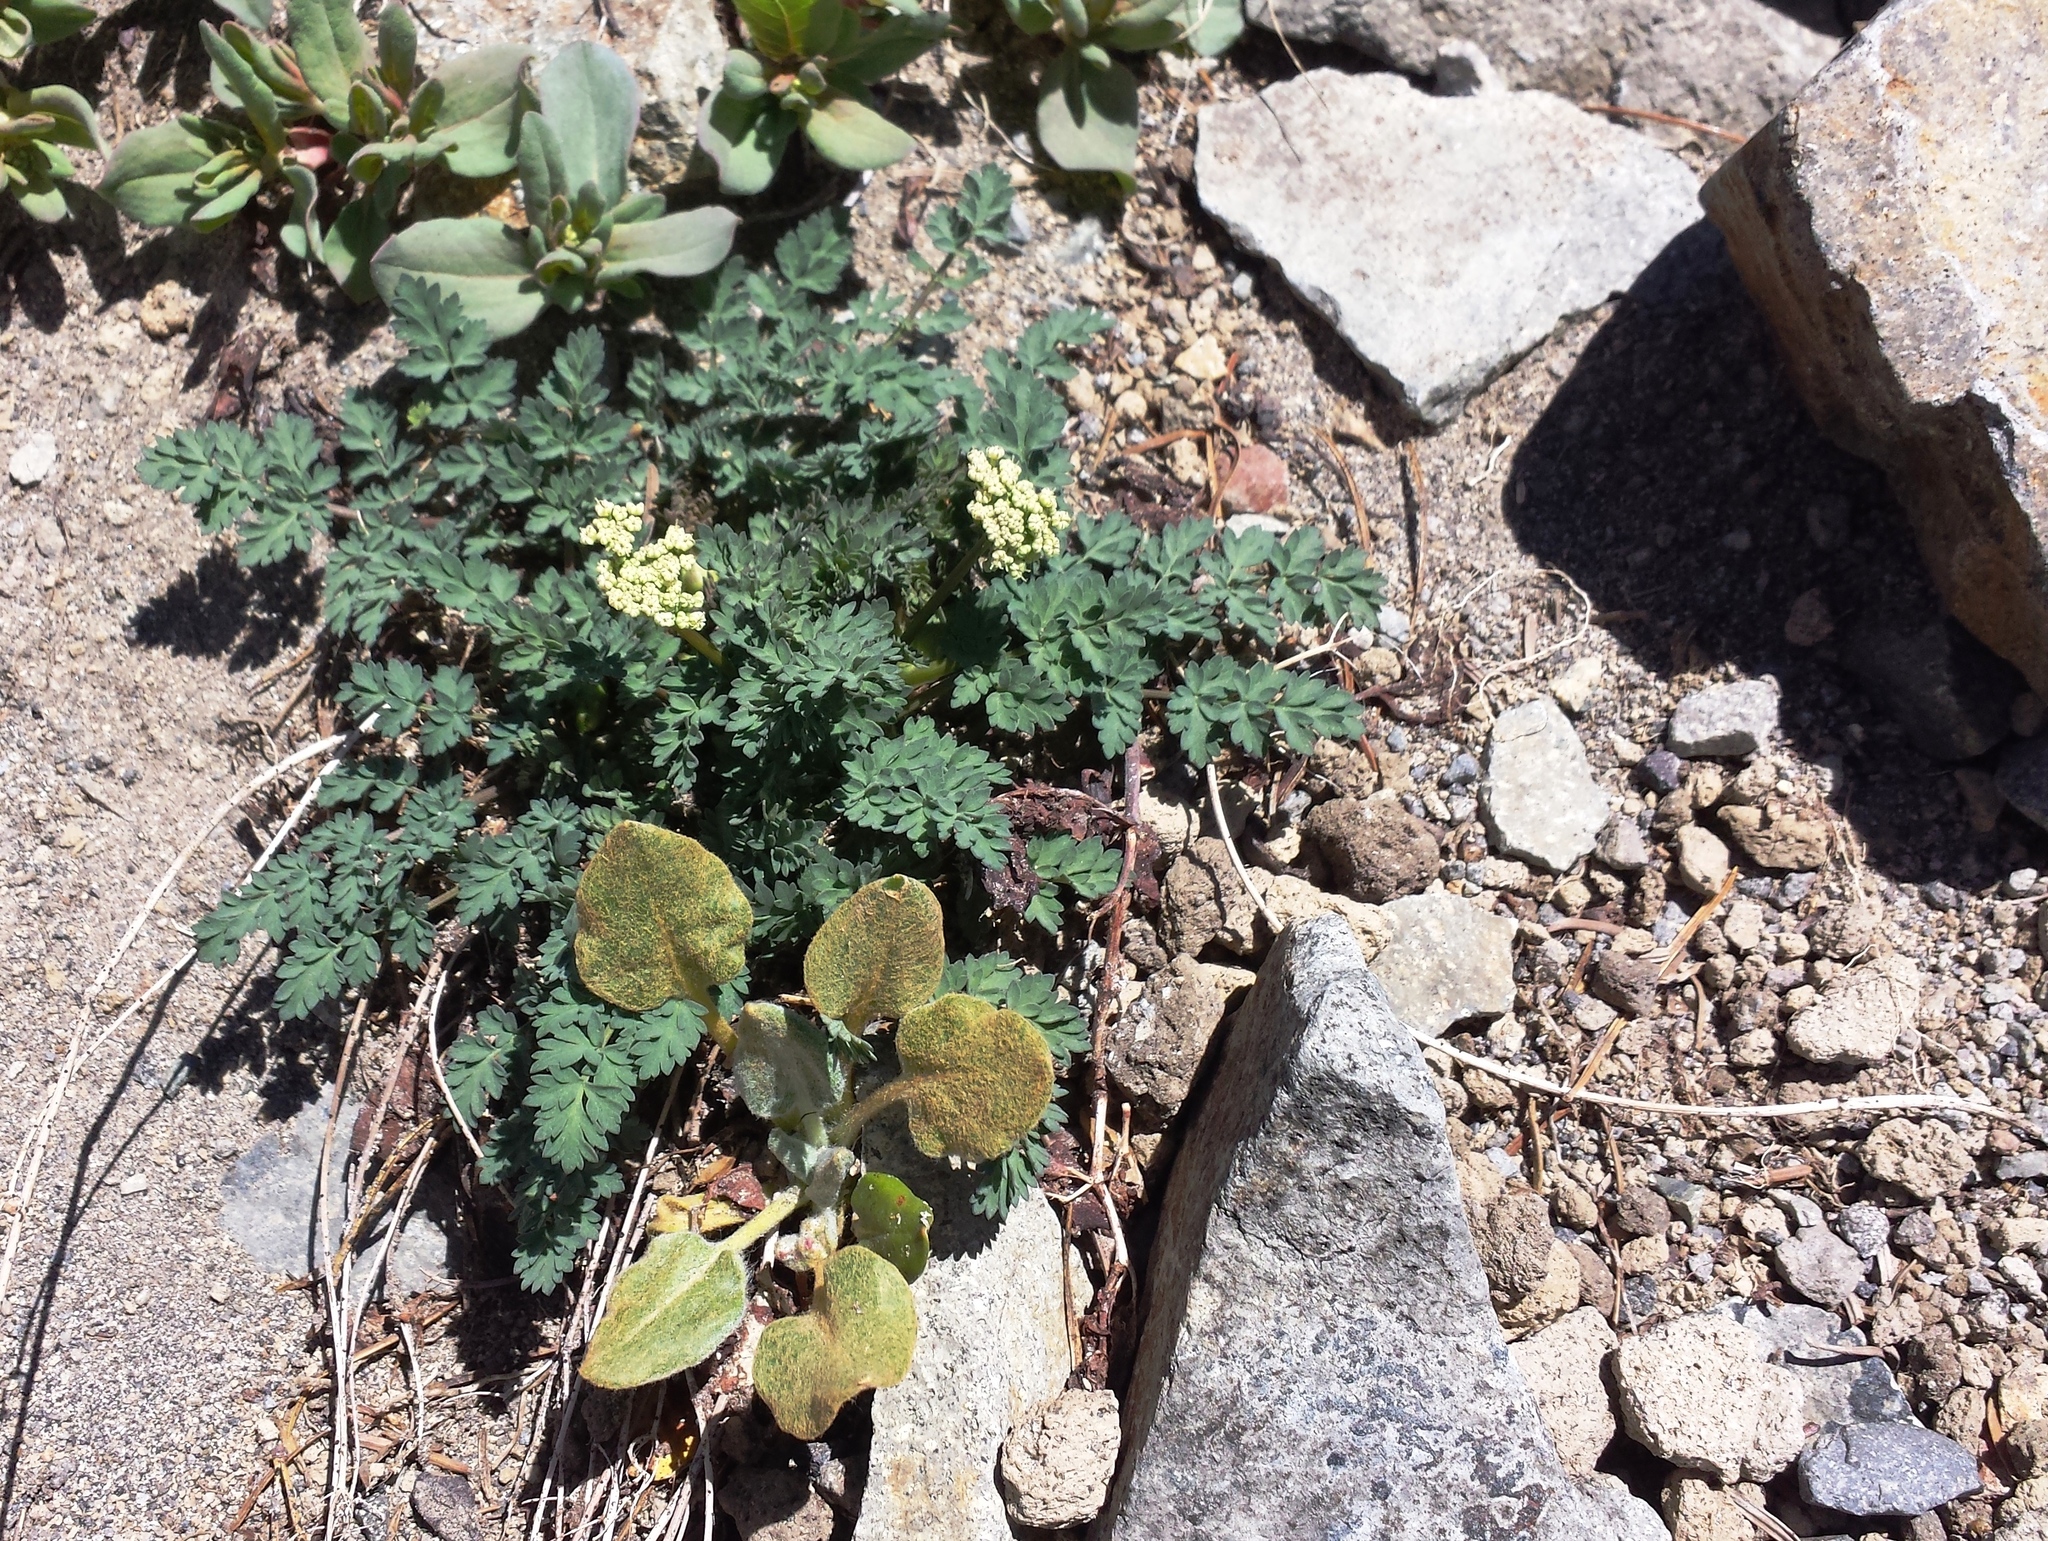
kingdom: Plantae
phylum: Tracheophyta
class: Magnoliopsida
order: Apiales
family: Apiaceae
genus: Lomatium
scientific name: Lomatium martindalei
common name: Cascade desert-parsley
